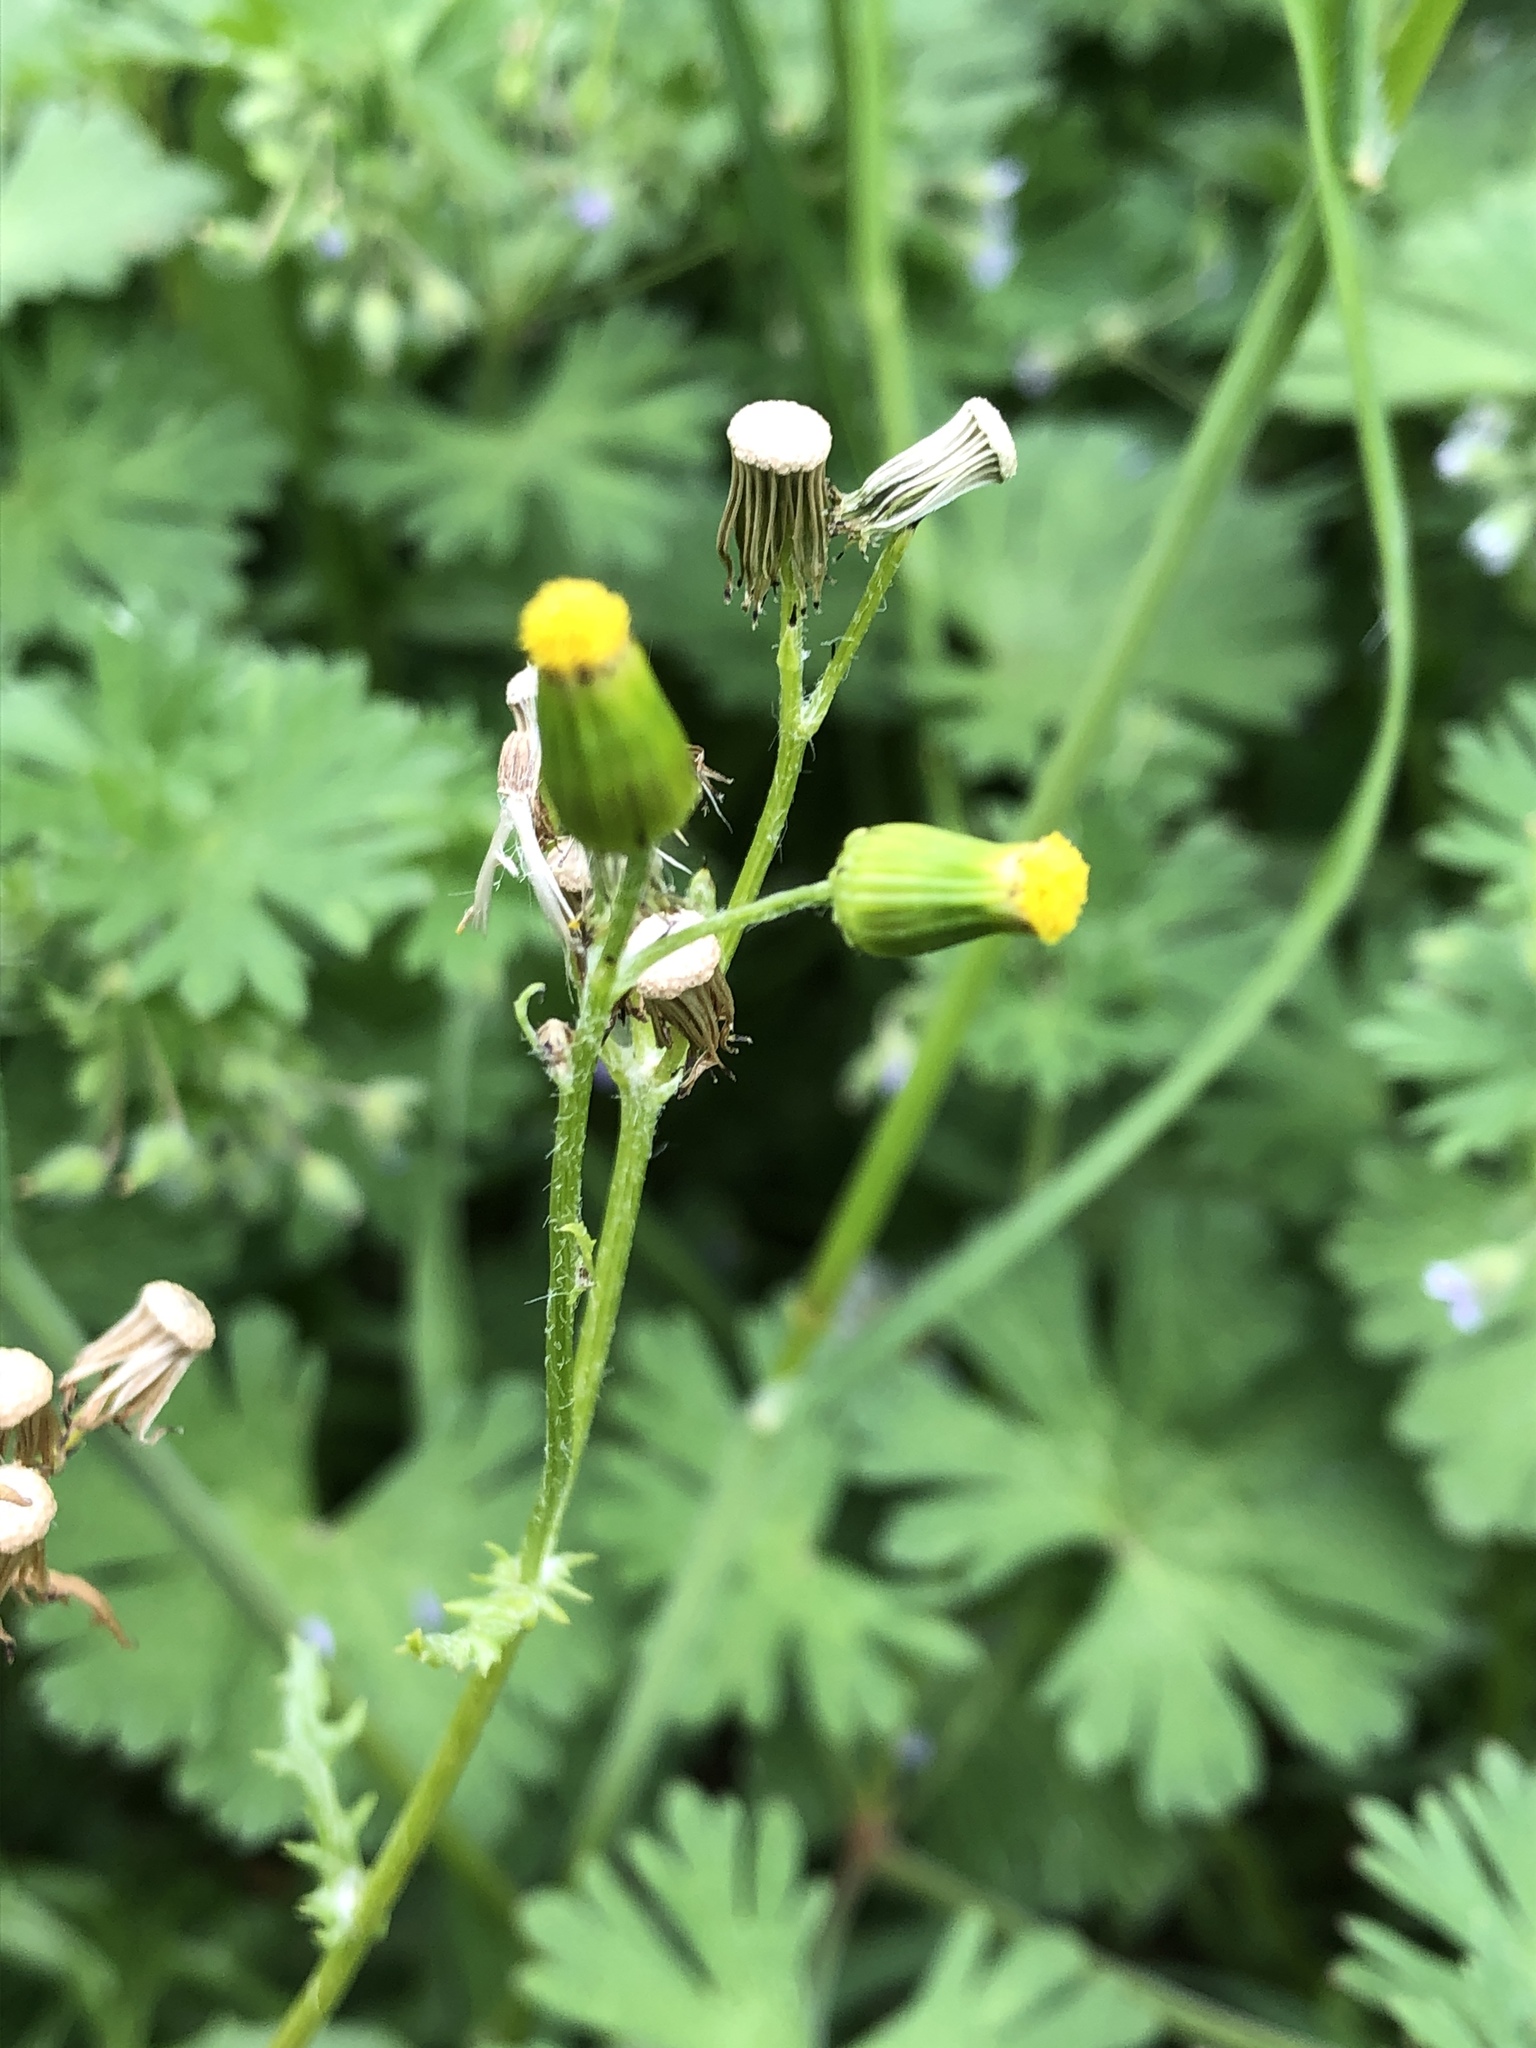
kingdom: Plantae
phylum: Tracheophyta
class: Magnoliopsida
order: Asterales
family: Asteraceae
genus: Senecio
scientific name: Senecio vulgaris
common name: Old-man-in-the-spring
